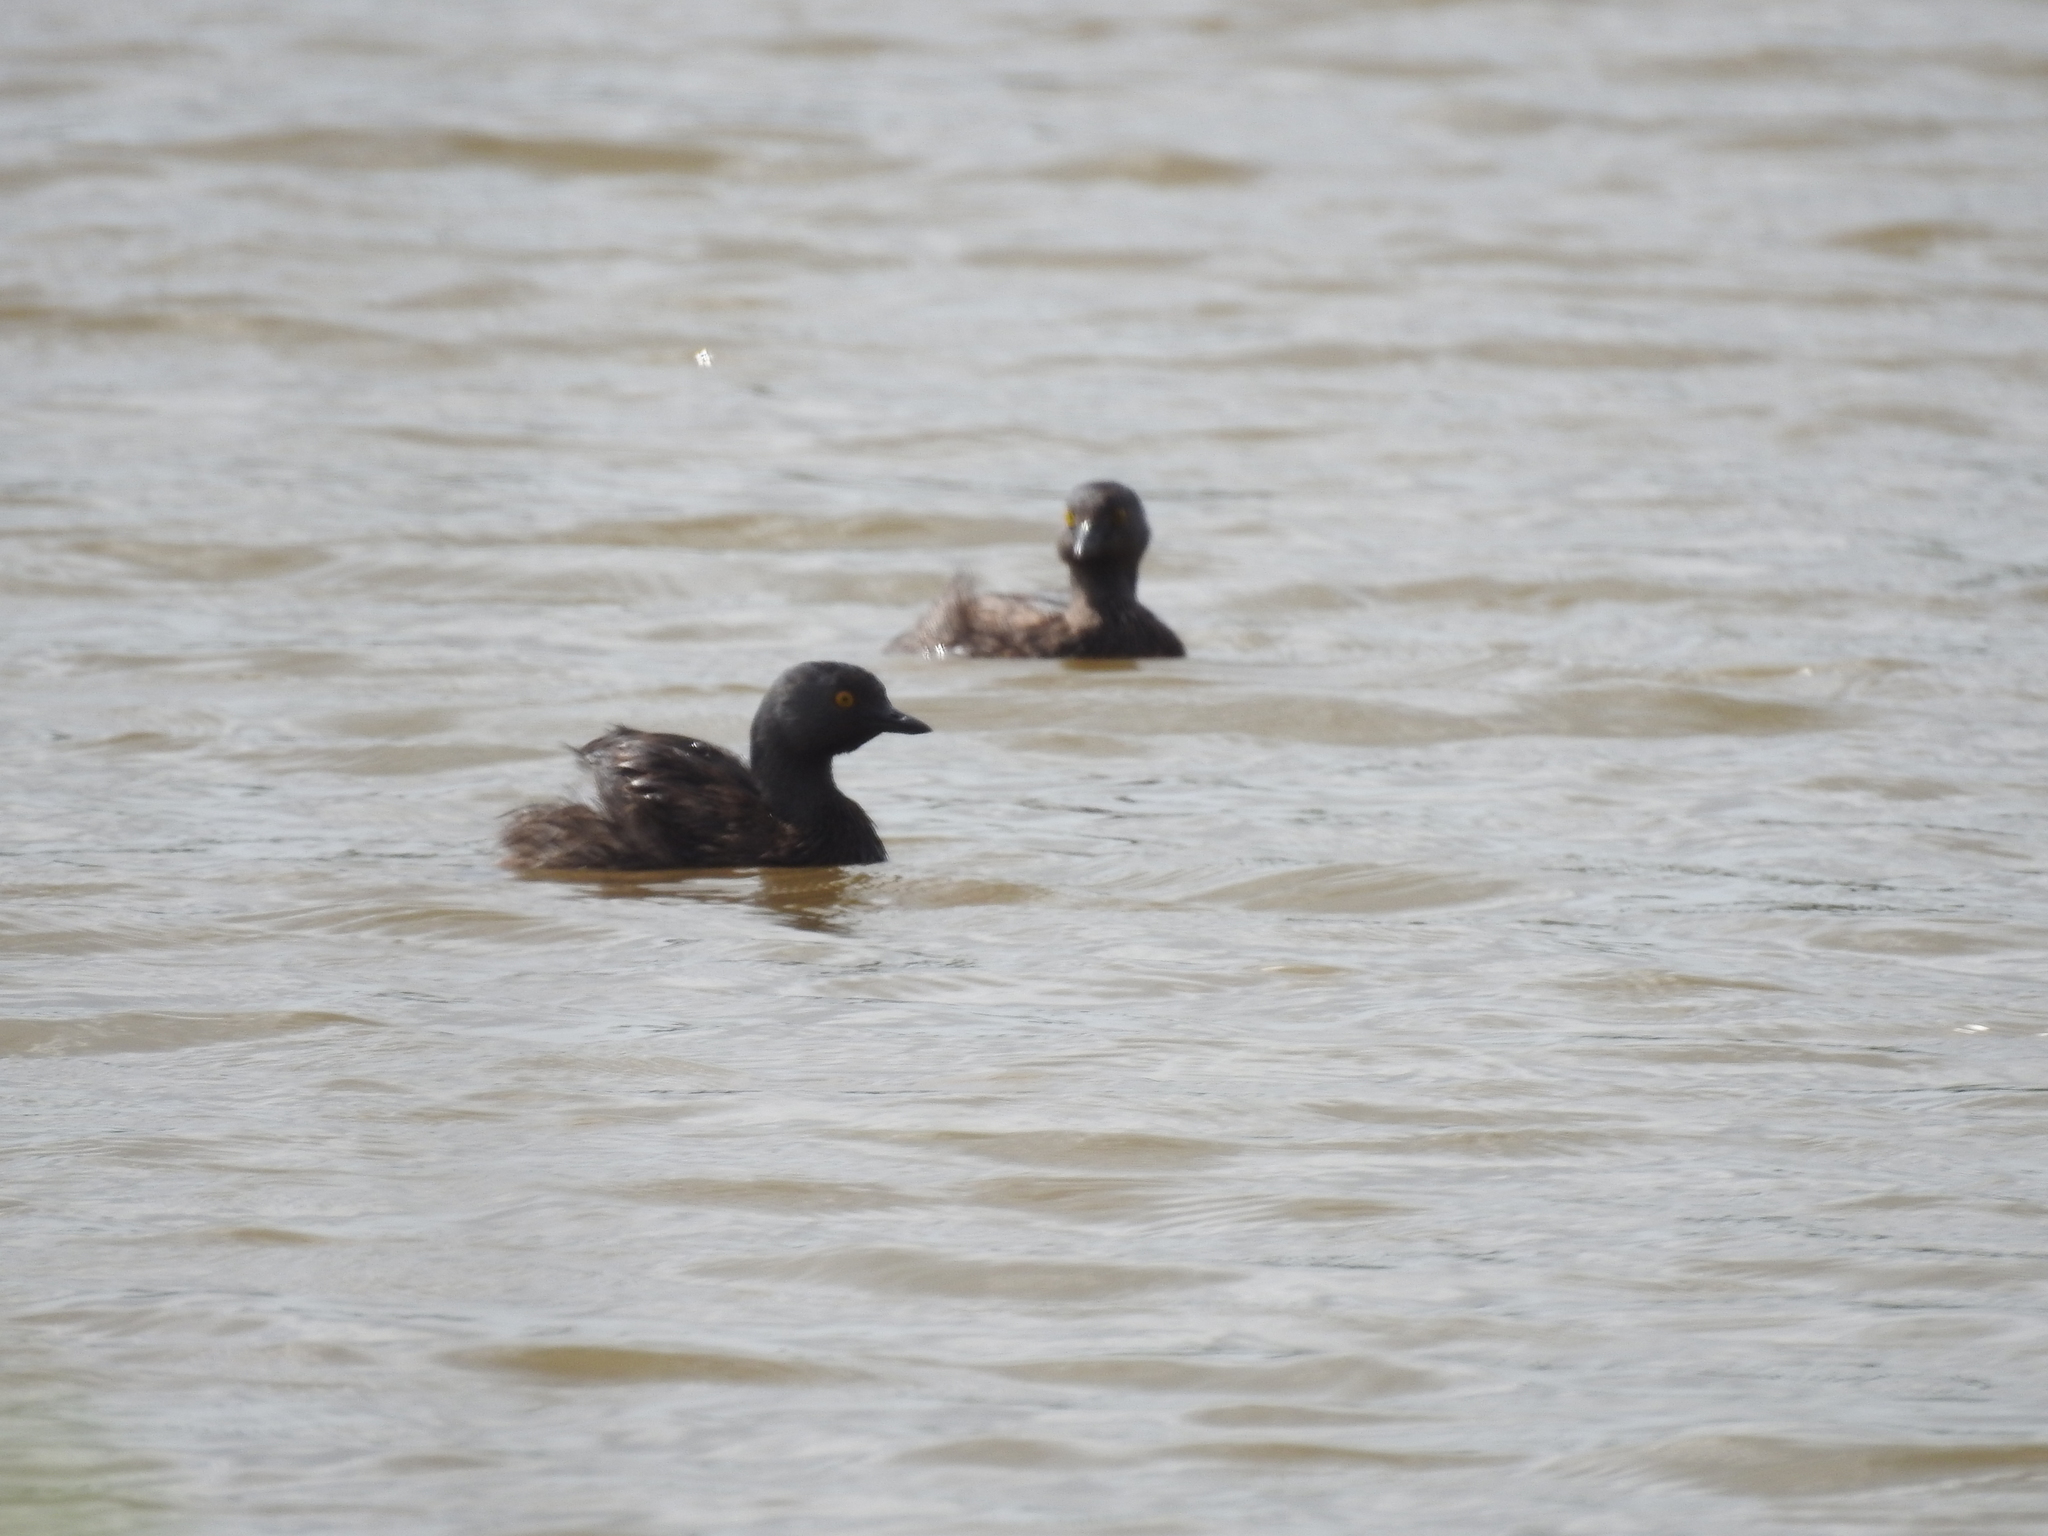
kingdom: Animalia
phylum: Chordata
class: Aves
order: Podicipediformes
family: Podicipedidae
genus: Tachybaptus
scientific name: Tachybaptus dominicus
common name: Least grebe
